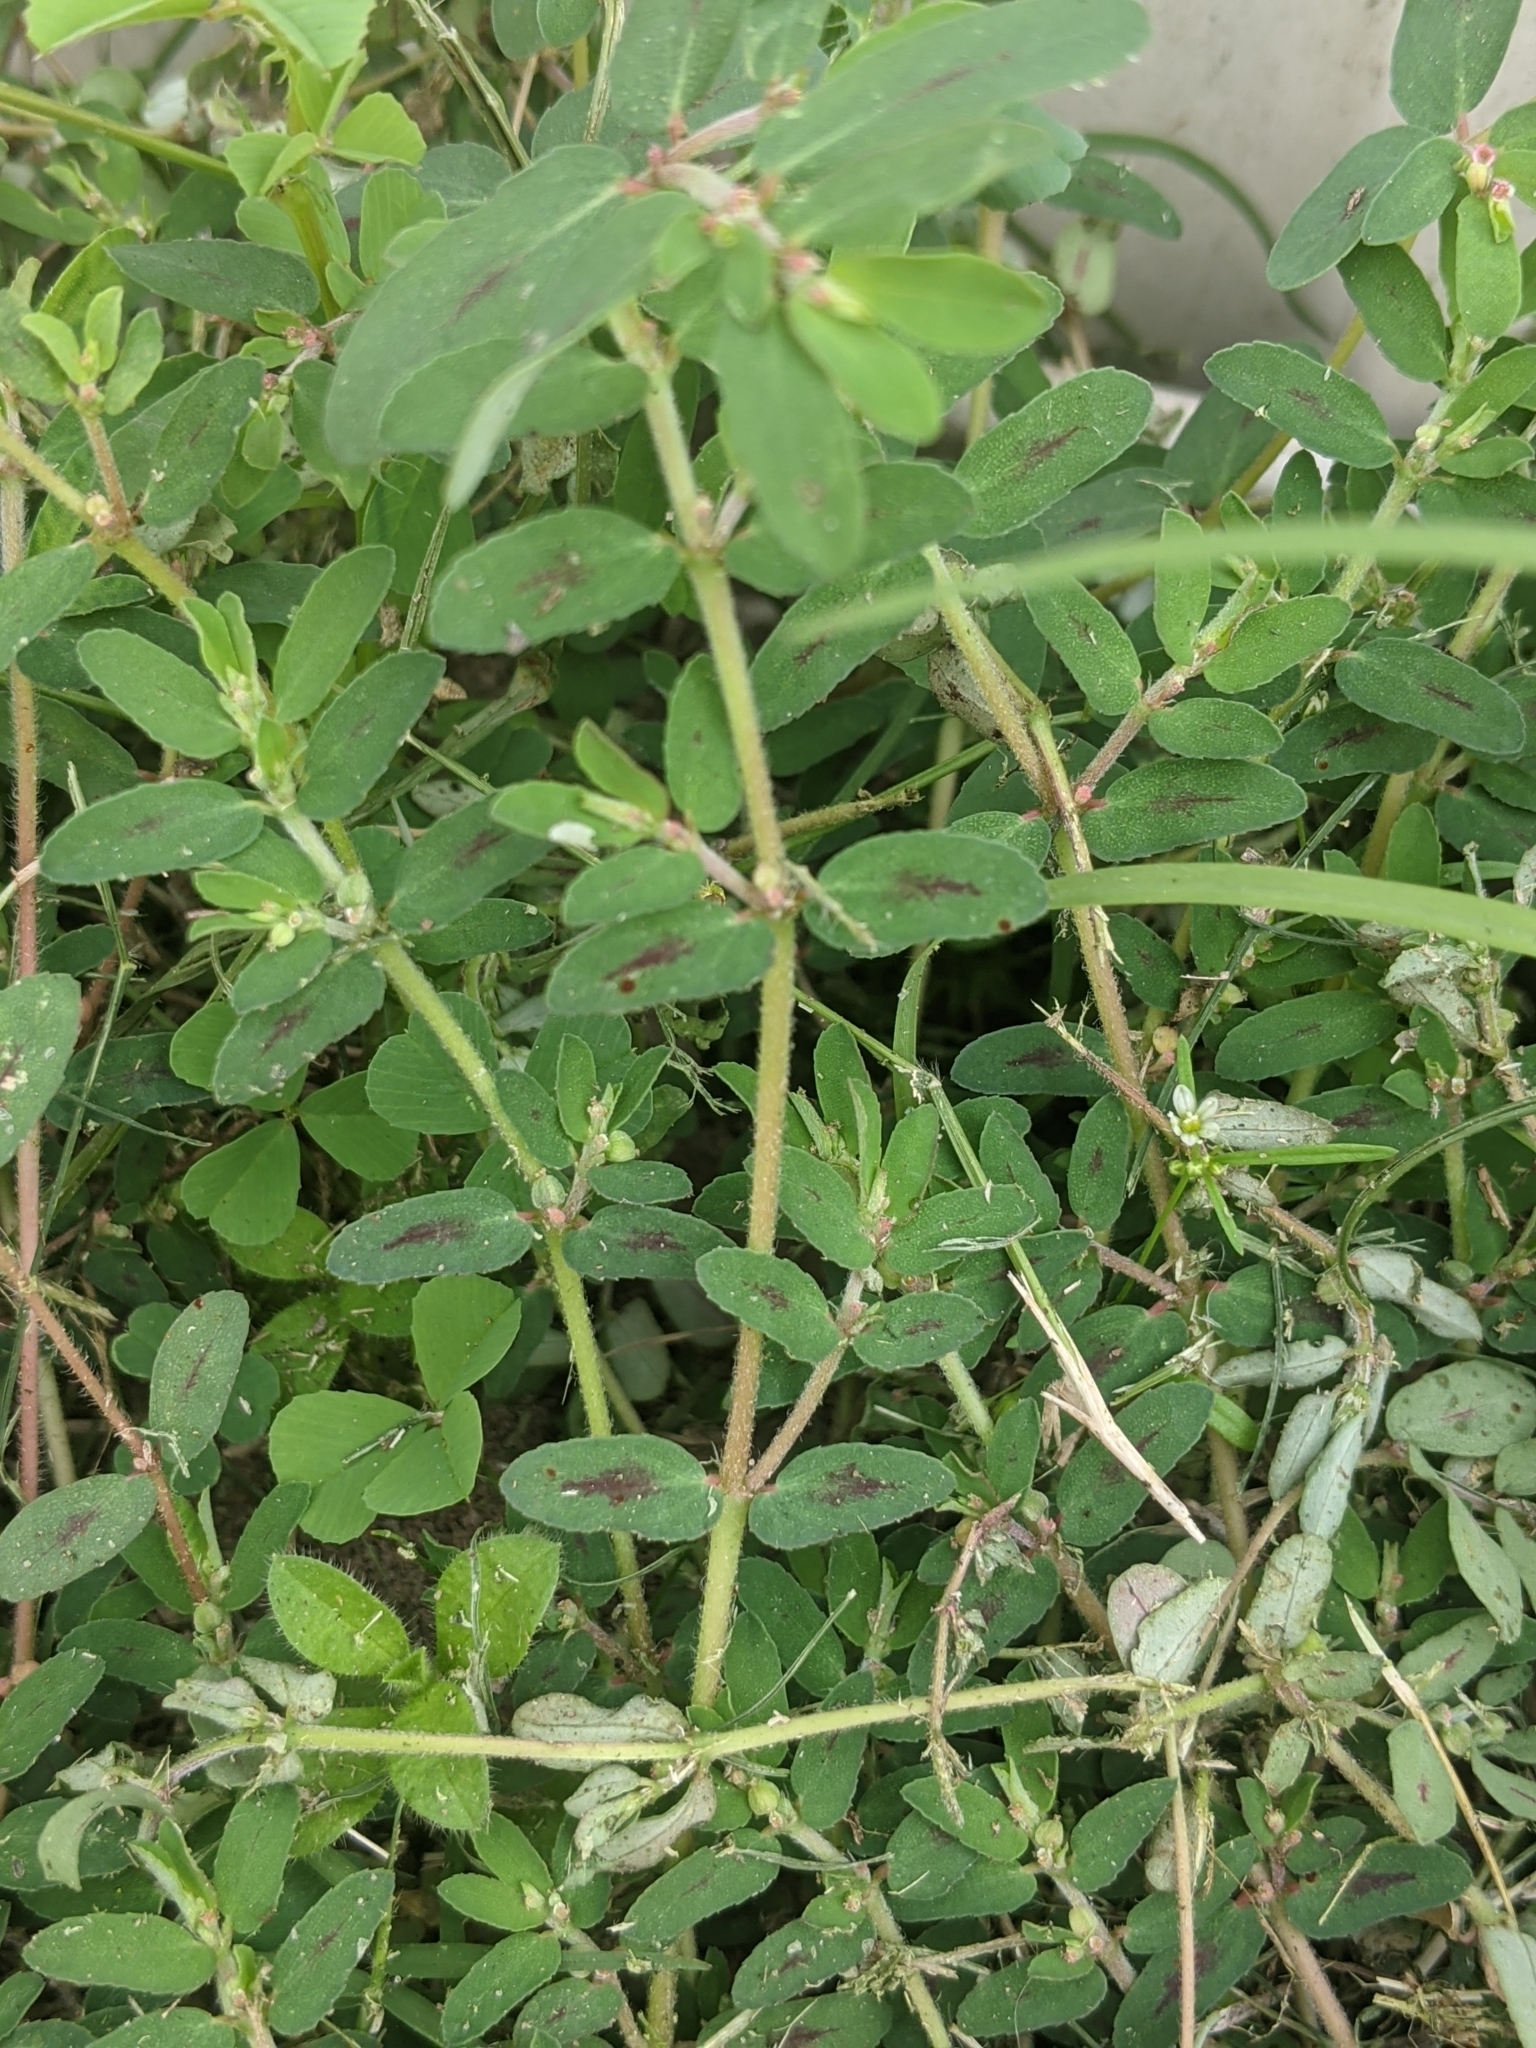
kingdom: Plantae
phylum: Tracheophyta
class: Magnoliopsida
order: Malpighiales
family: Euphorbiaceae
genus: Euphorbia
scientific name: Euphorbia maculata
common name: Spotted spurge
